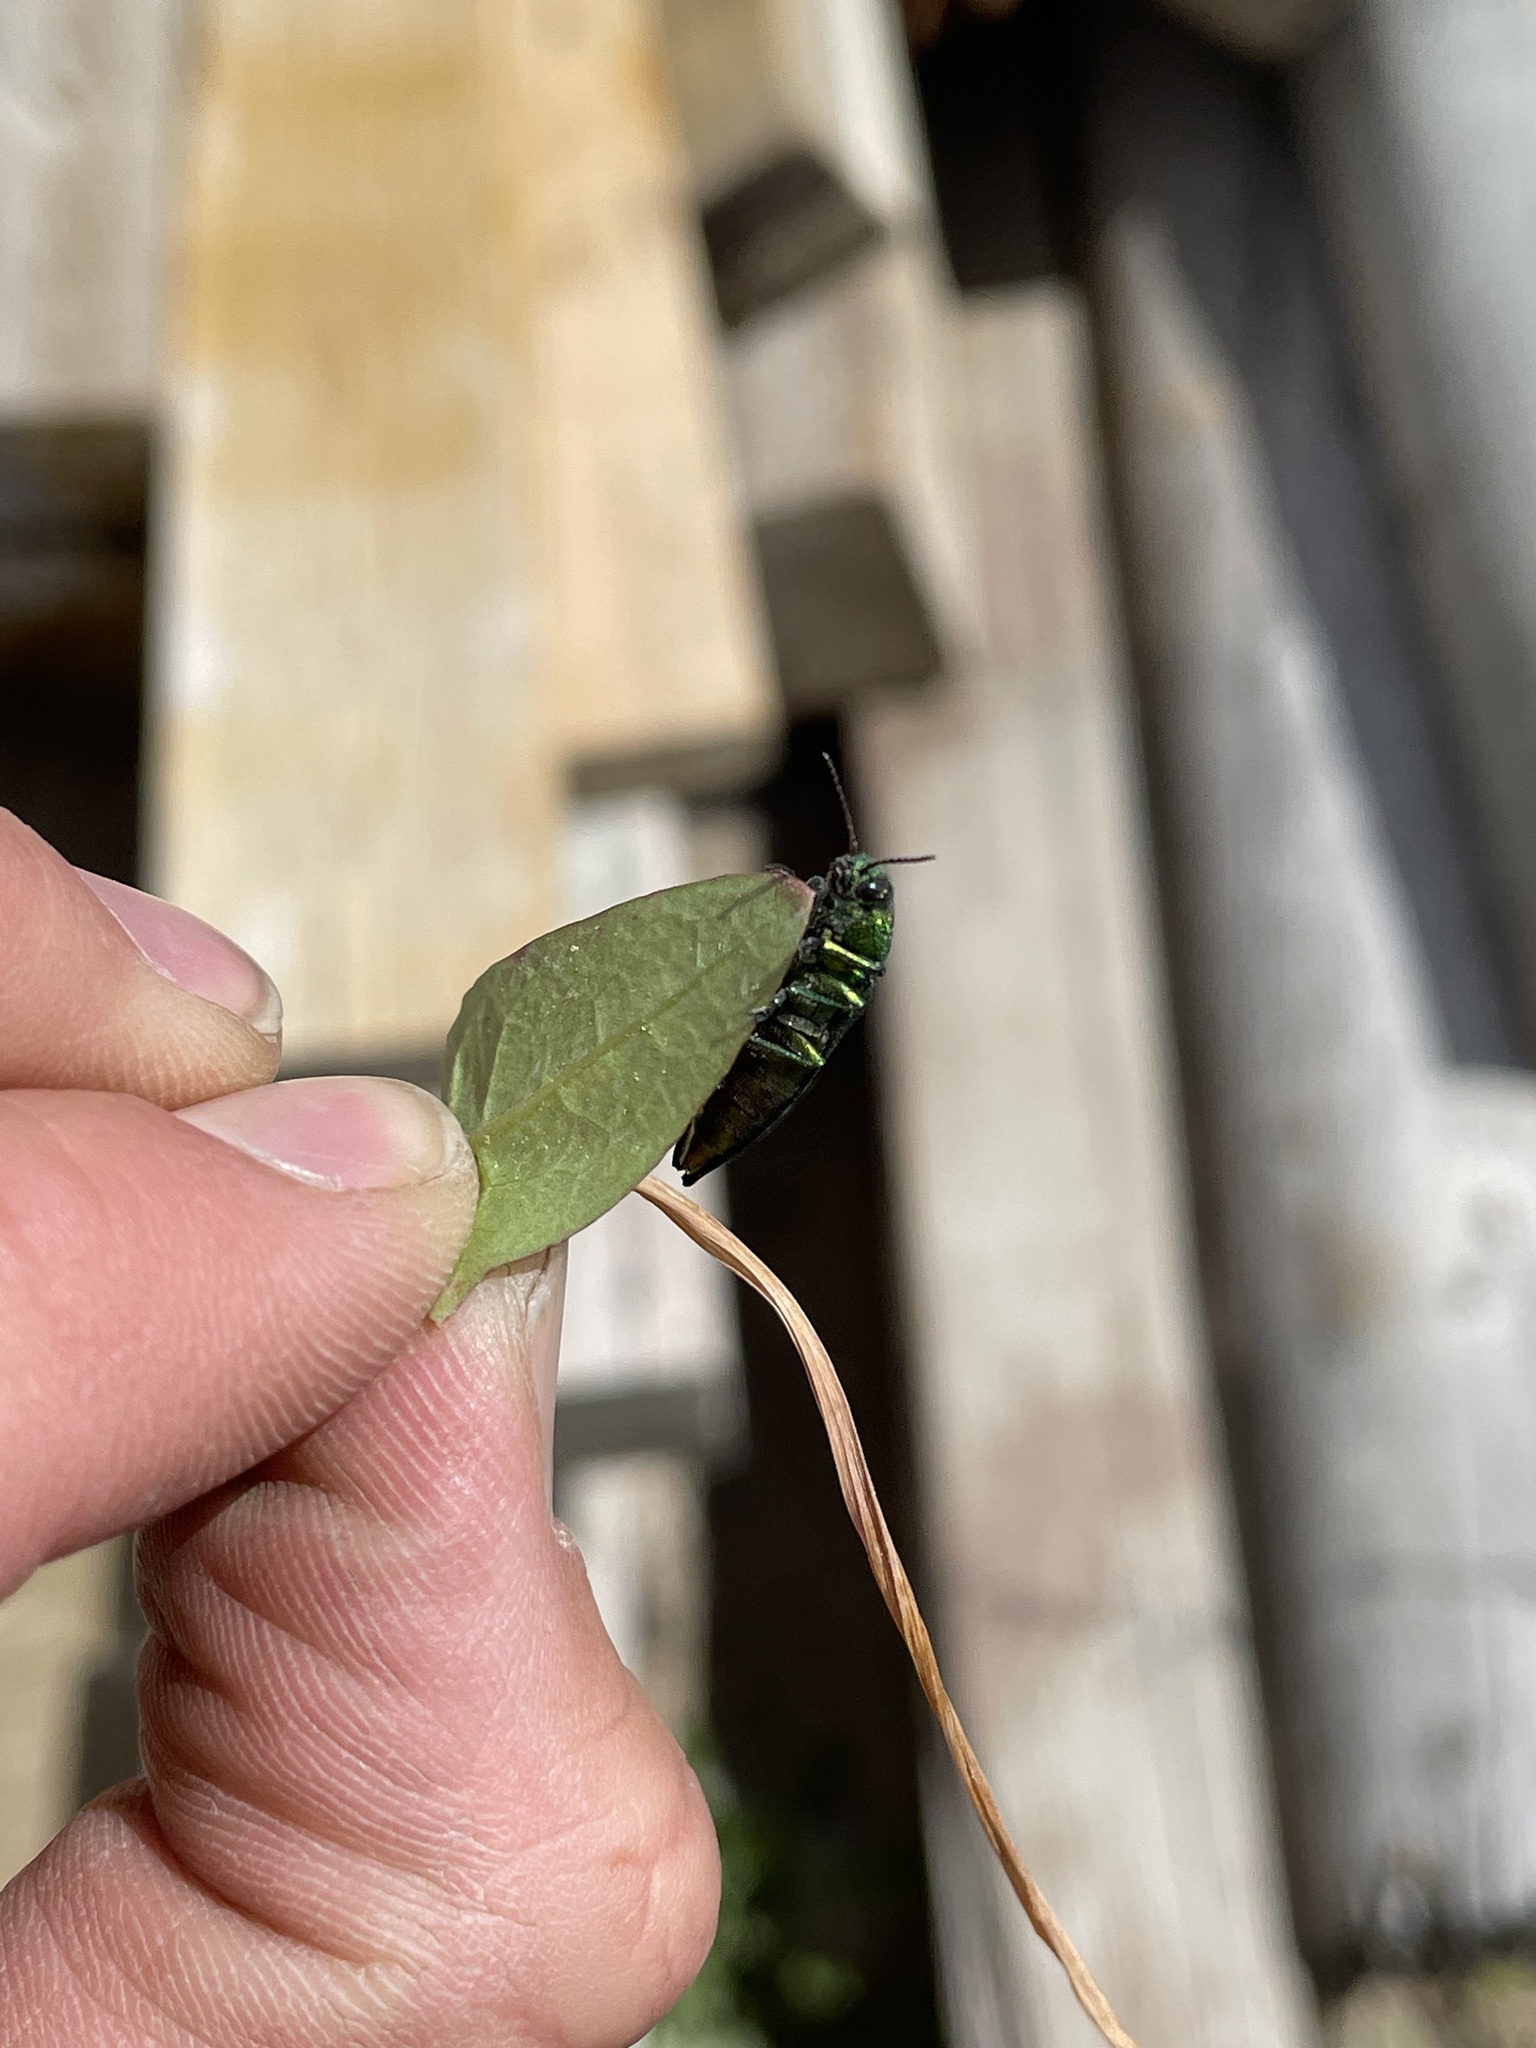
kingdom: Animalia
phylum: Arthropoda
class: Insecta
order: Coleoptera
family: Buprestidae
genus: Buprestis
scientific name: Buprestis langii
